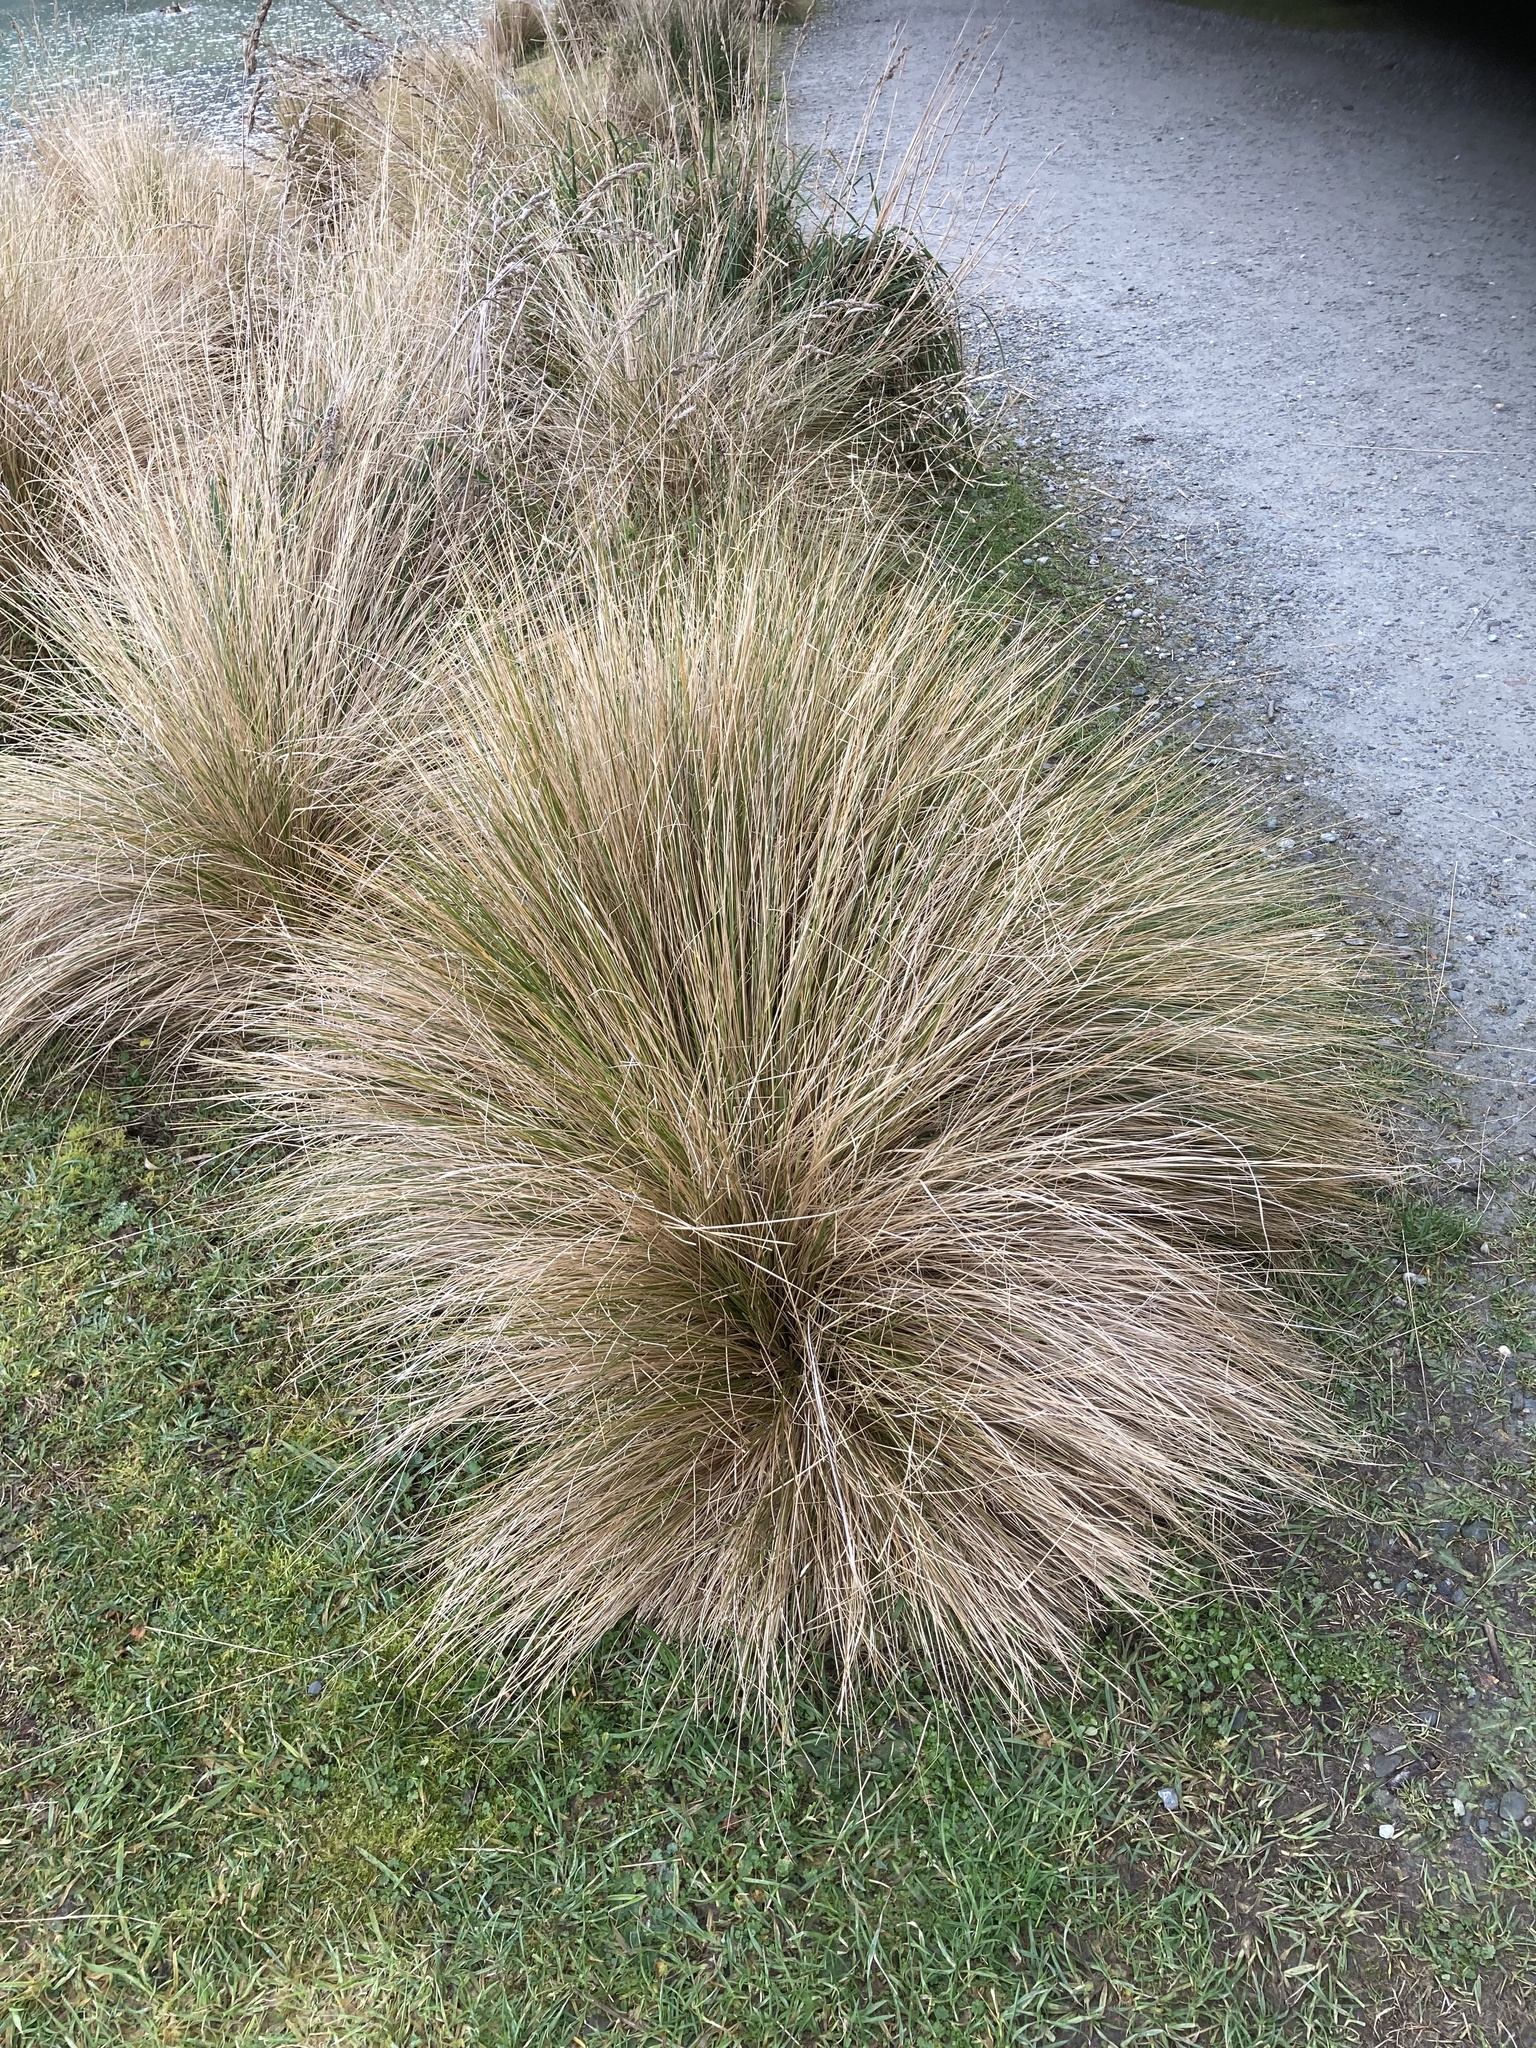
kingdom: Plantae
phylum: Tracheophyta
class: Liliopsida
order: Poales
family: Poaceae
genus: Poa
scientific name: Poa cita
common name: Silver tussock
